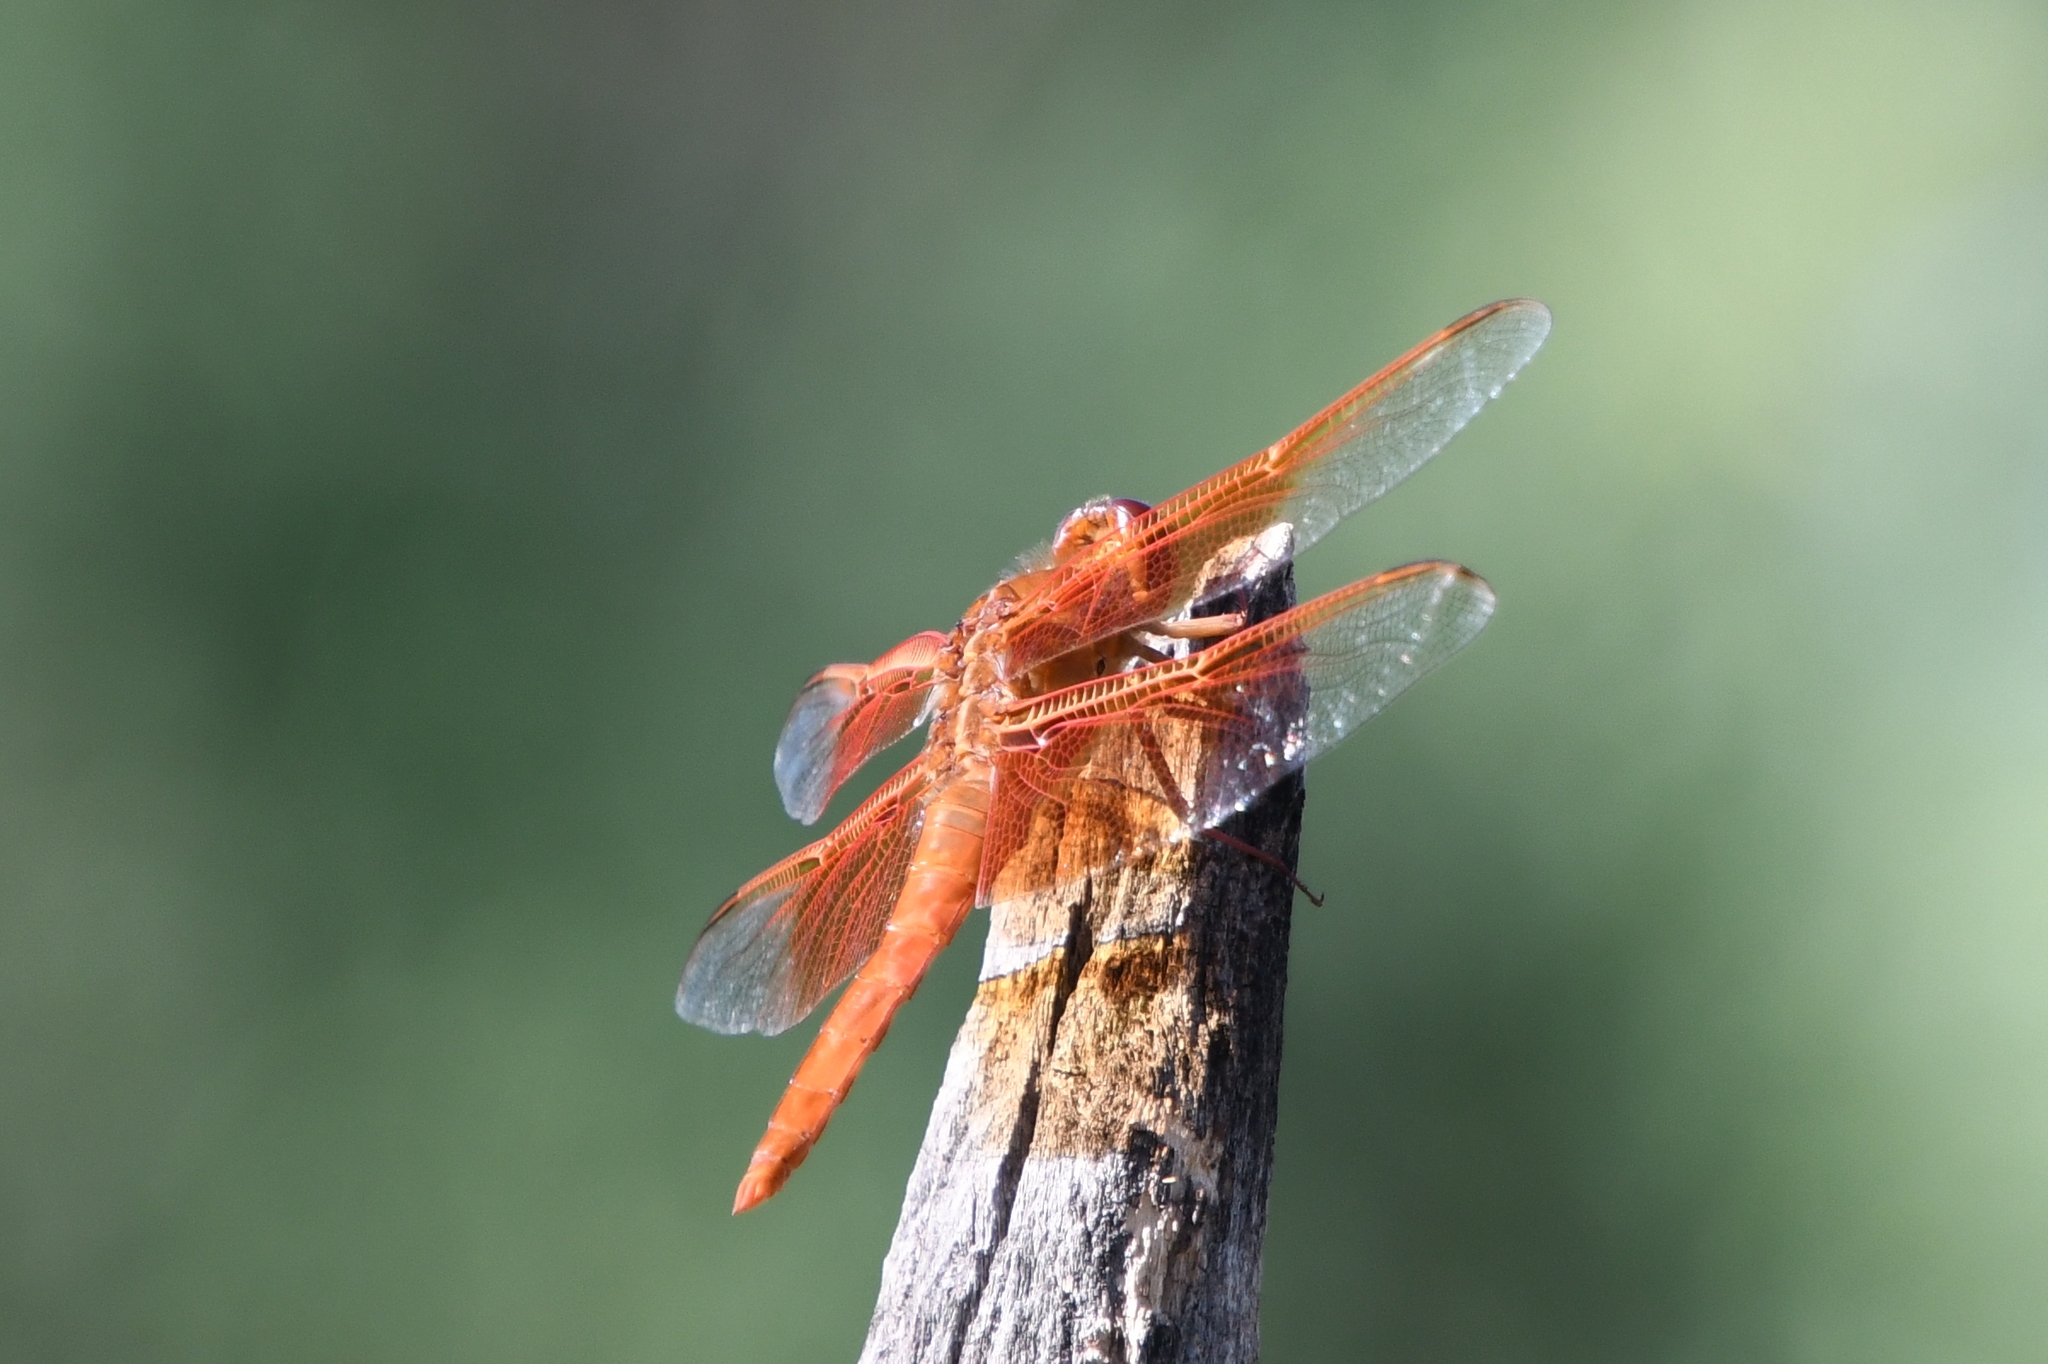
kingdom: Animalia
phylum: Arthropoda
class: Insecta
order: Odonata
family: Libellulidae
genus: Libellula
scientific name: Libellula saturata
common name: Flame skimmer
